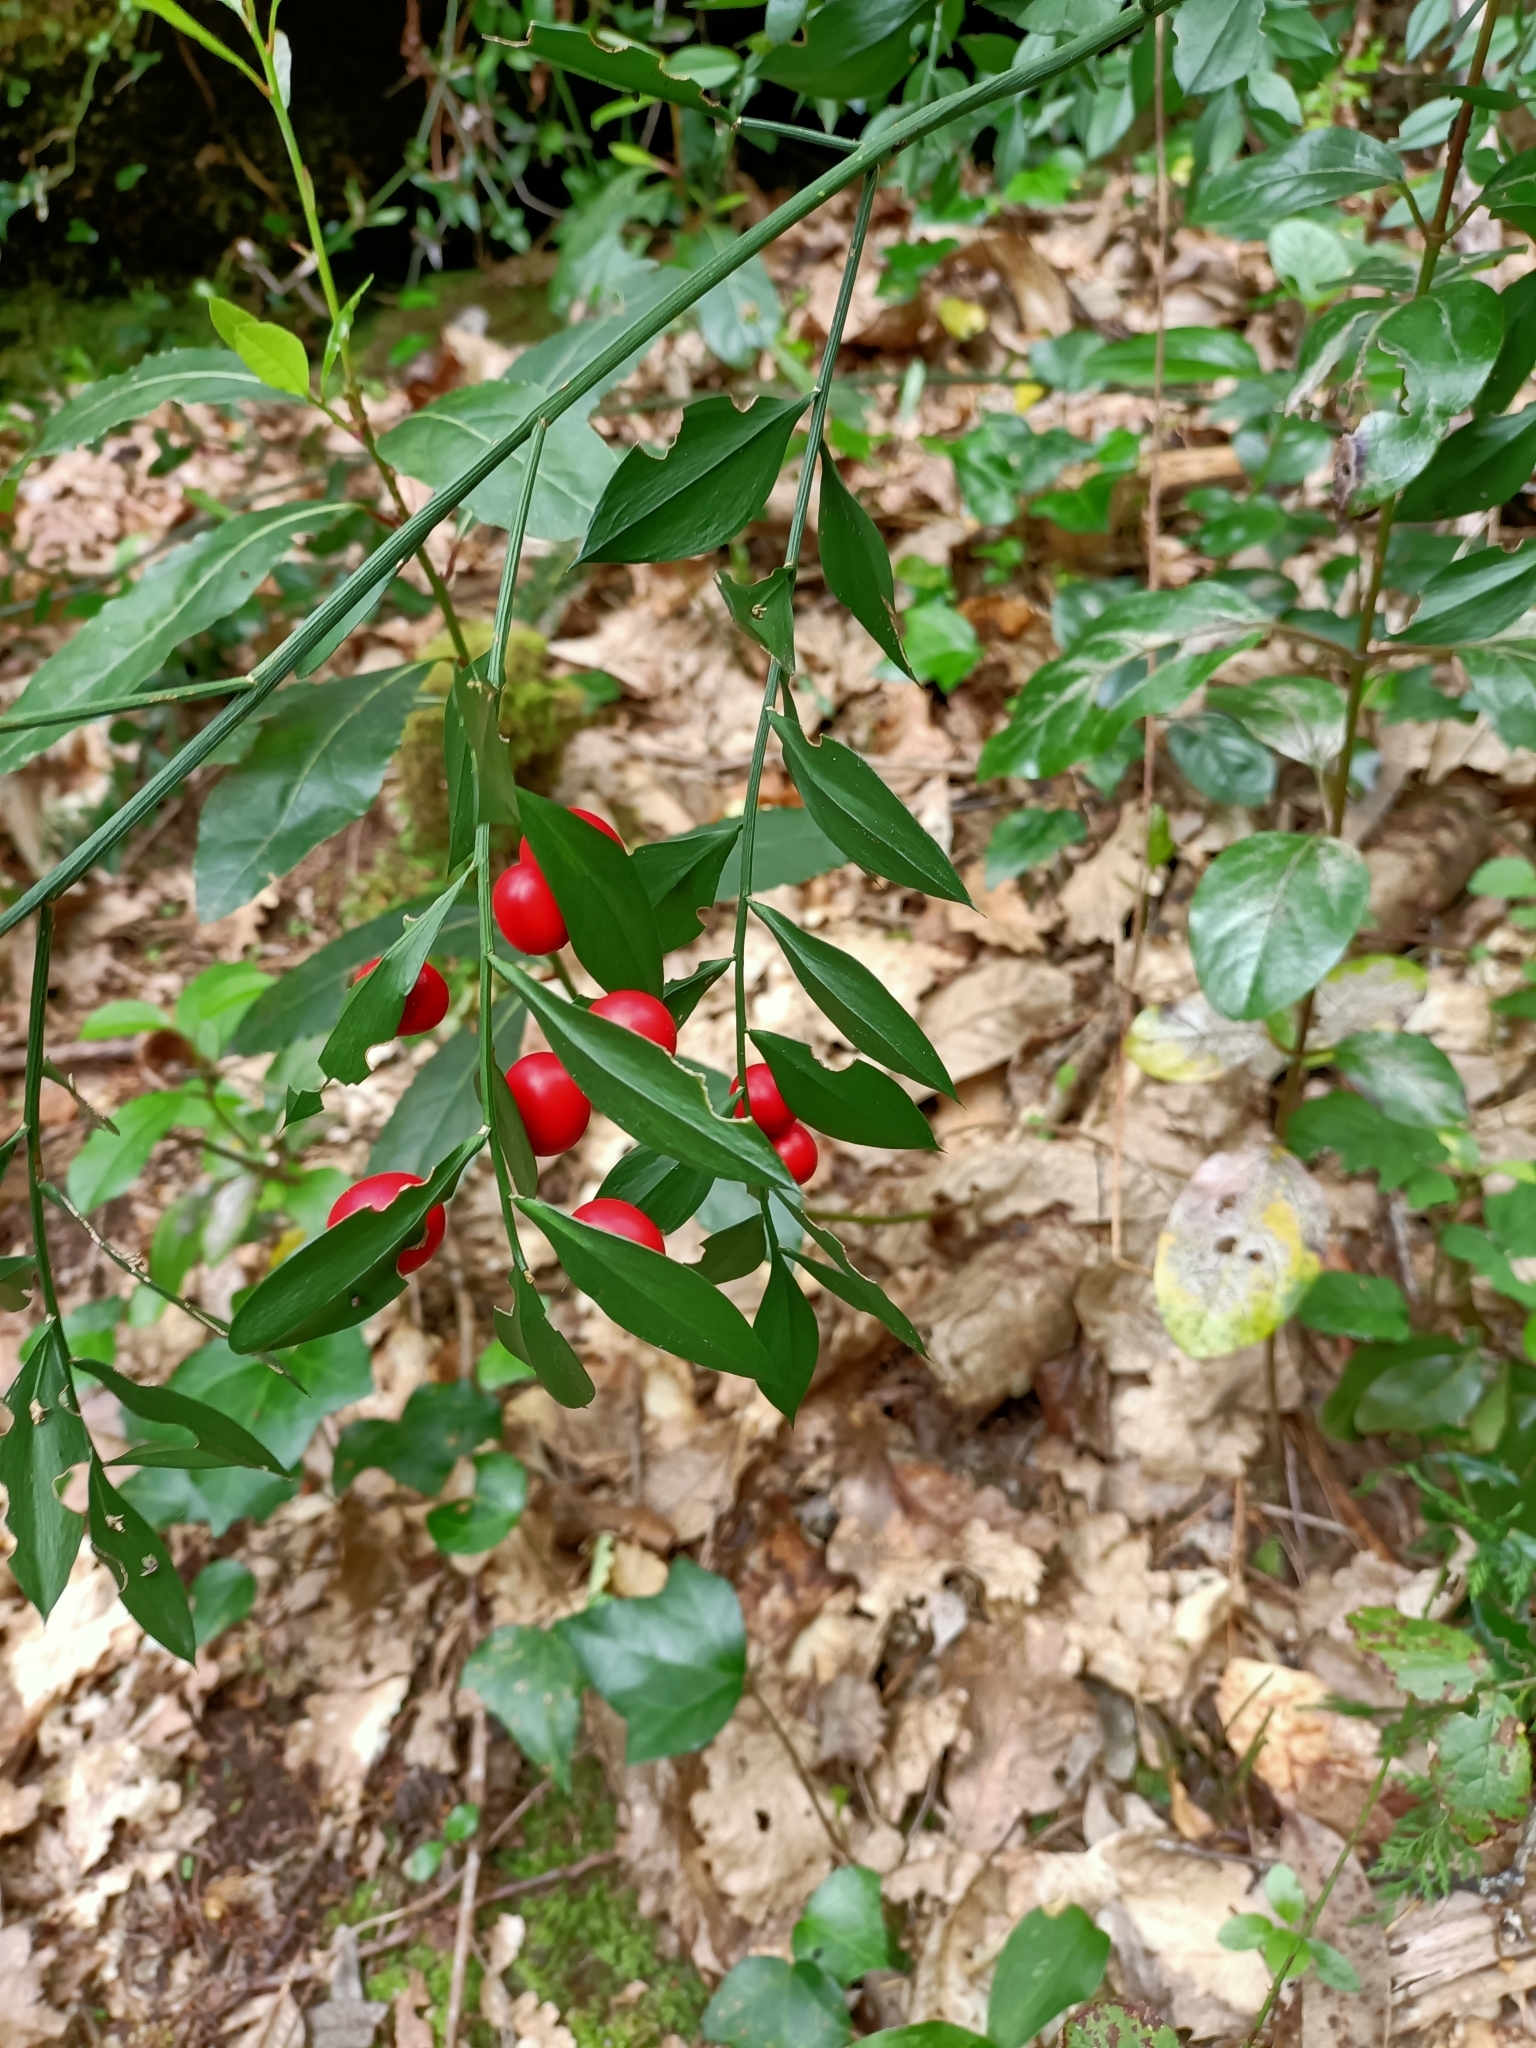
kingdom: Plantae
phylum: Tracheophyta
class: Liliopsida
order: Asparagales
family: Asparagaceae
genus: Ruscus
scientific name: Ruscus aculeatus
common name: Butcher's-broom
